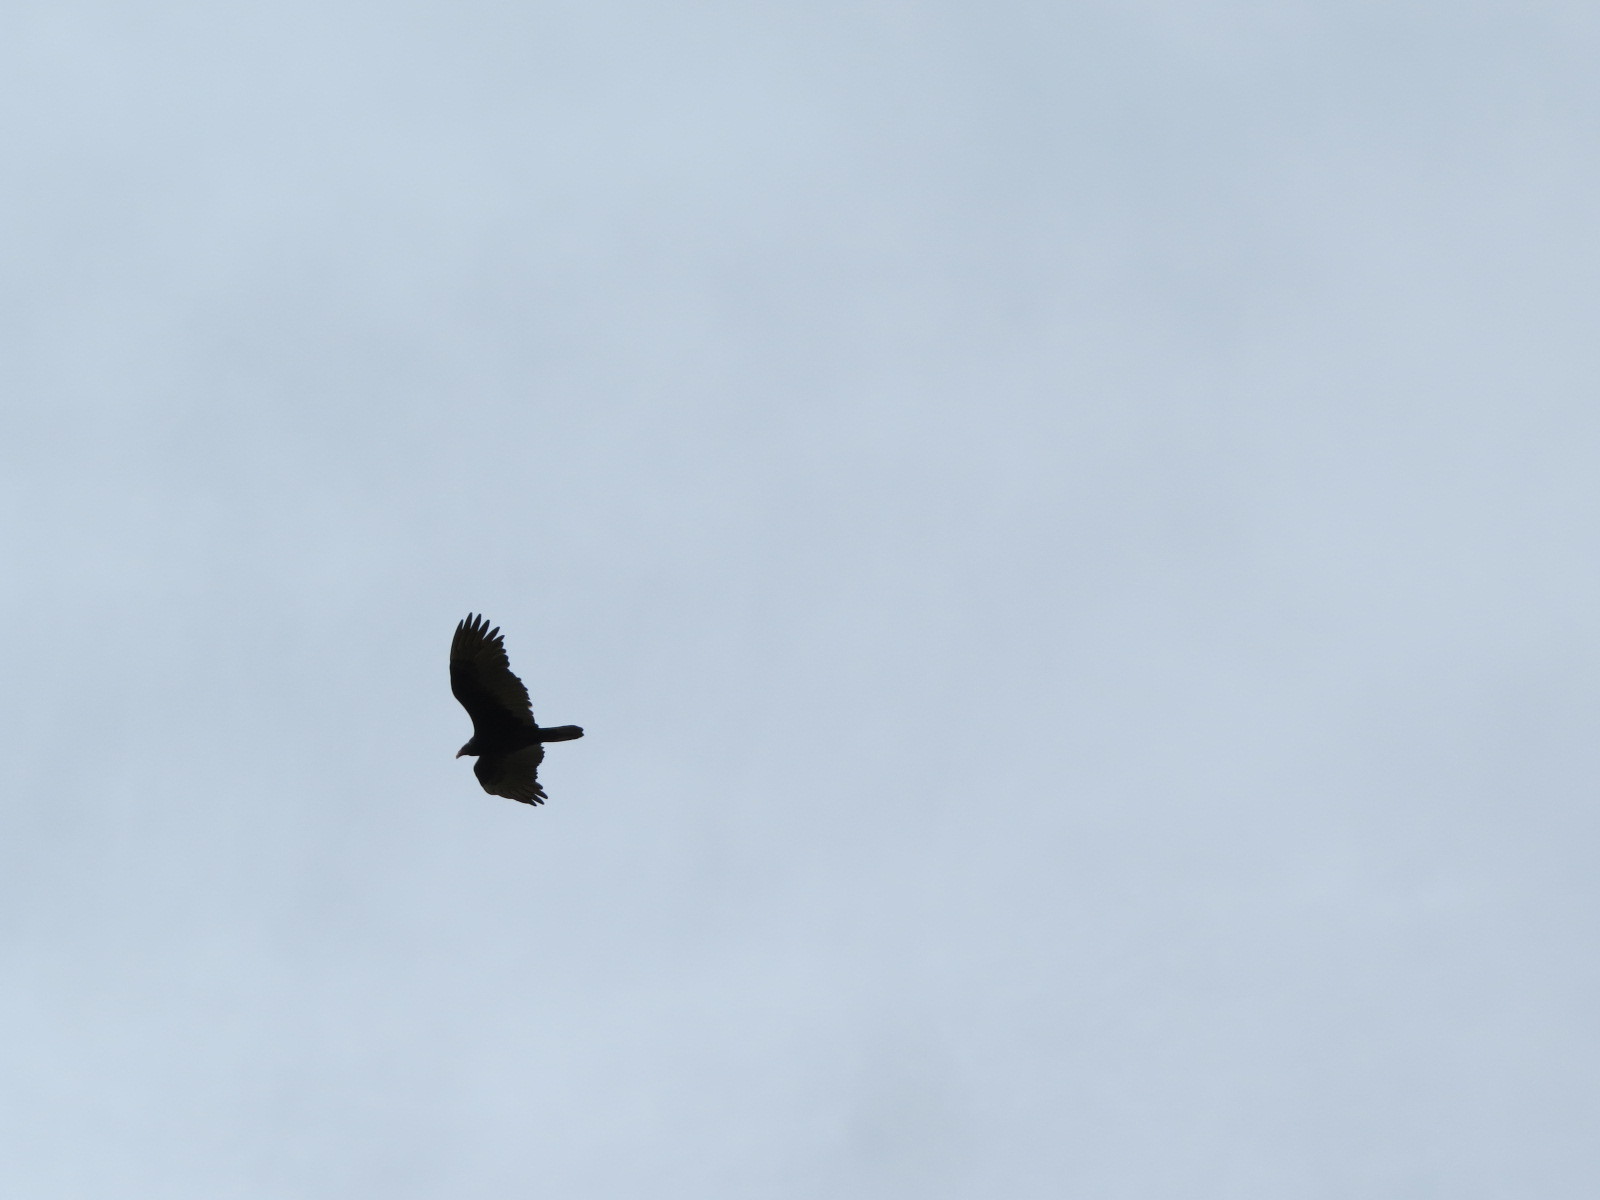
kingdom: Animalia
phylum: Chordata
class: Aves
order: Accipitriformes
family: Cathartidae
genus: Cathartes
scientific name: Cathartes aura
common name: Turkey vulture
